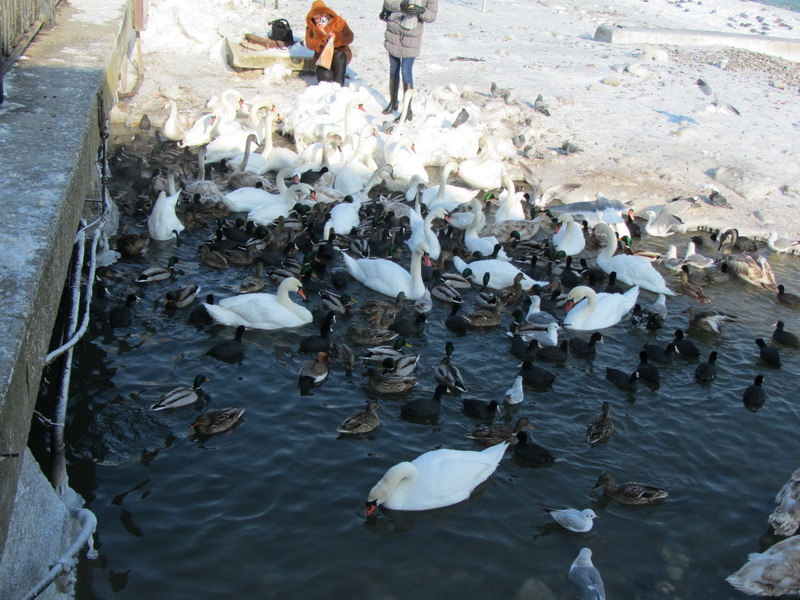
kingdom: Animalia
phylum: Chordata
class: Aves
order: Anseriformes
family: Anatidae
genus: Anas
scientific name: Anas platyrhynchos
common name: Mallard
